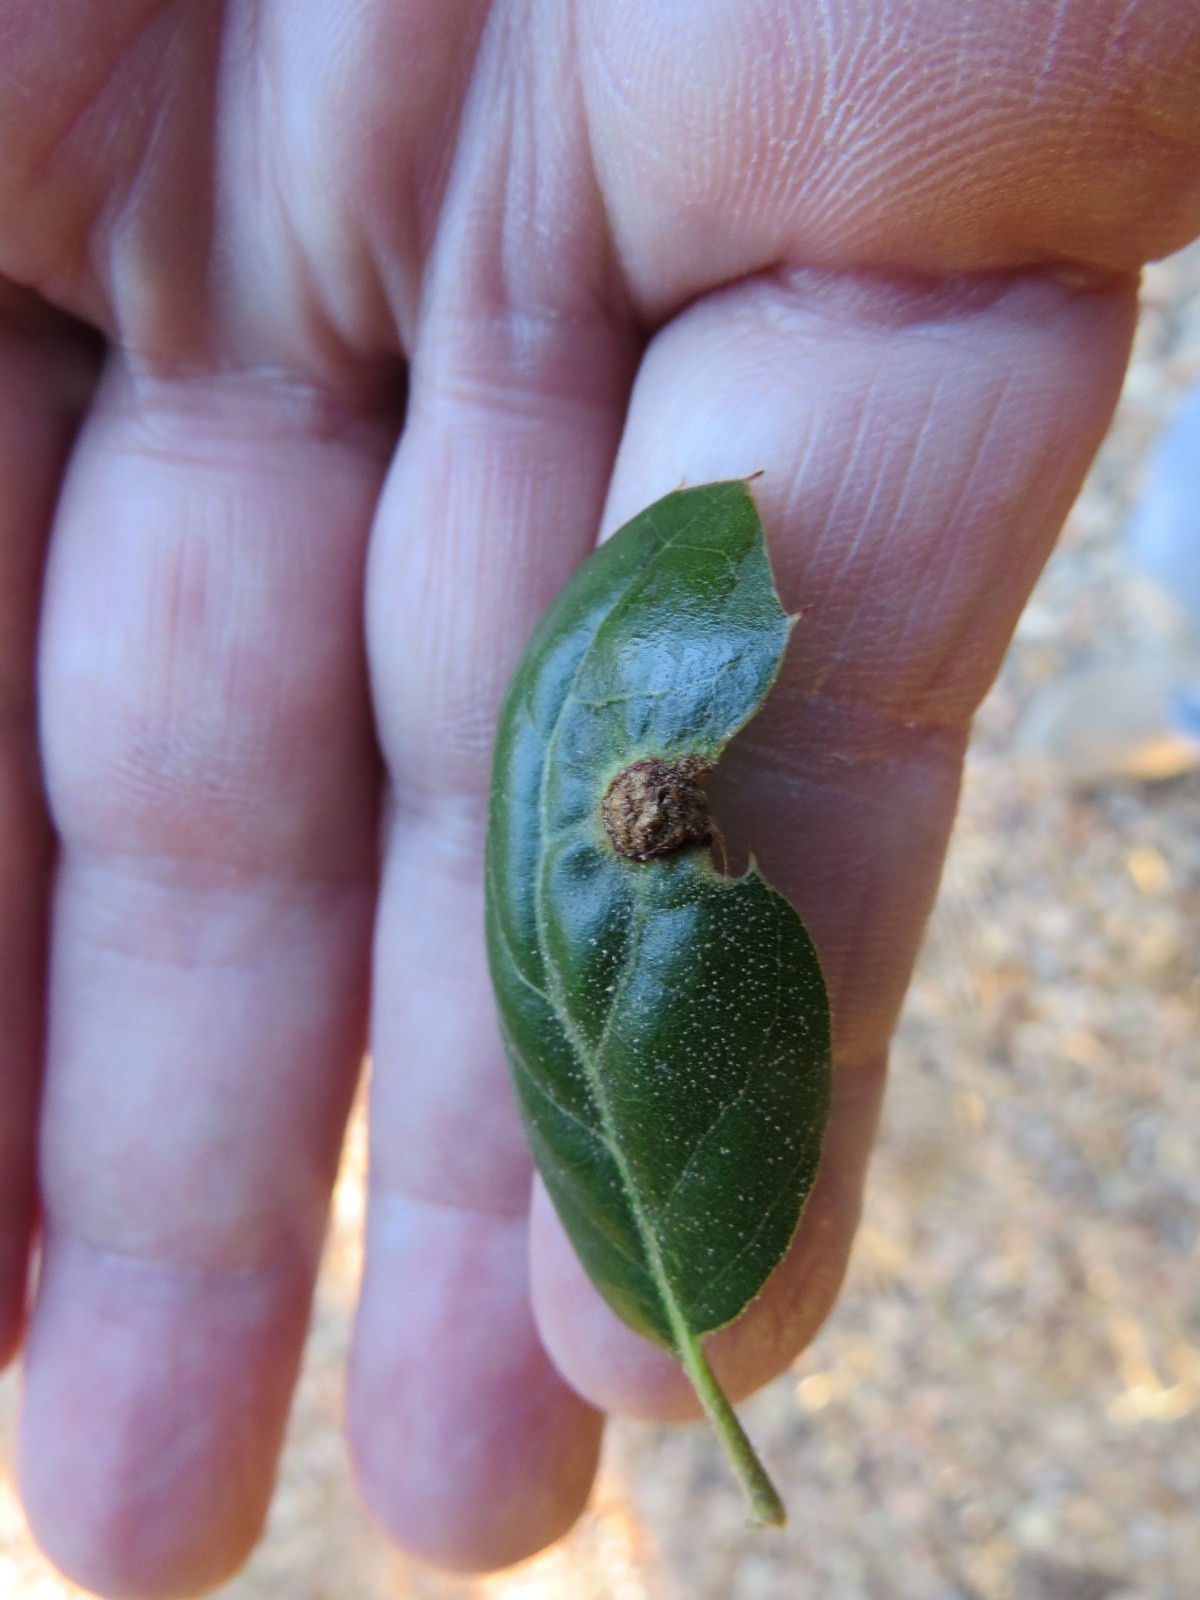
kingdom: Animalia
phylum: Arthropoda
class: Insecta
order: Hymenoptera
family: Cynipidae
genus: Callirhytis
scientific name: Callirhytis
